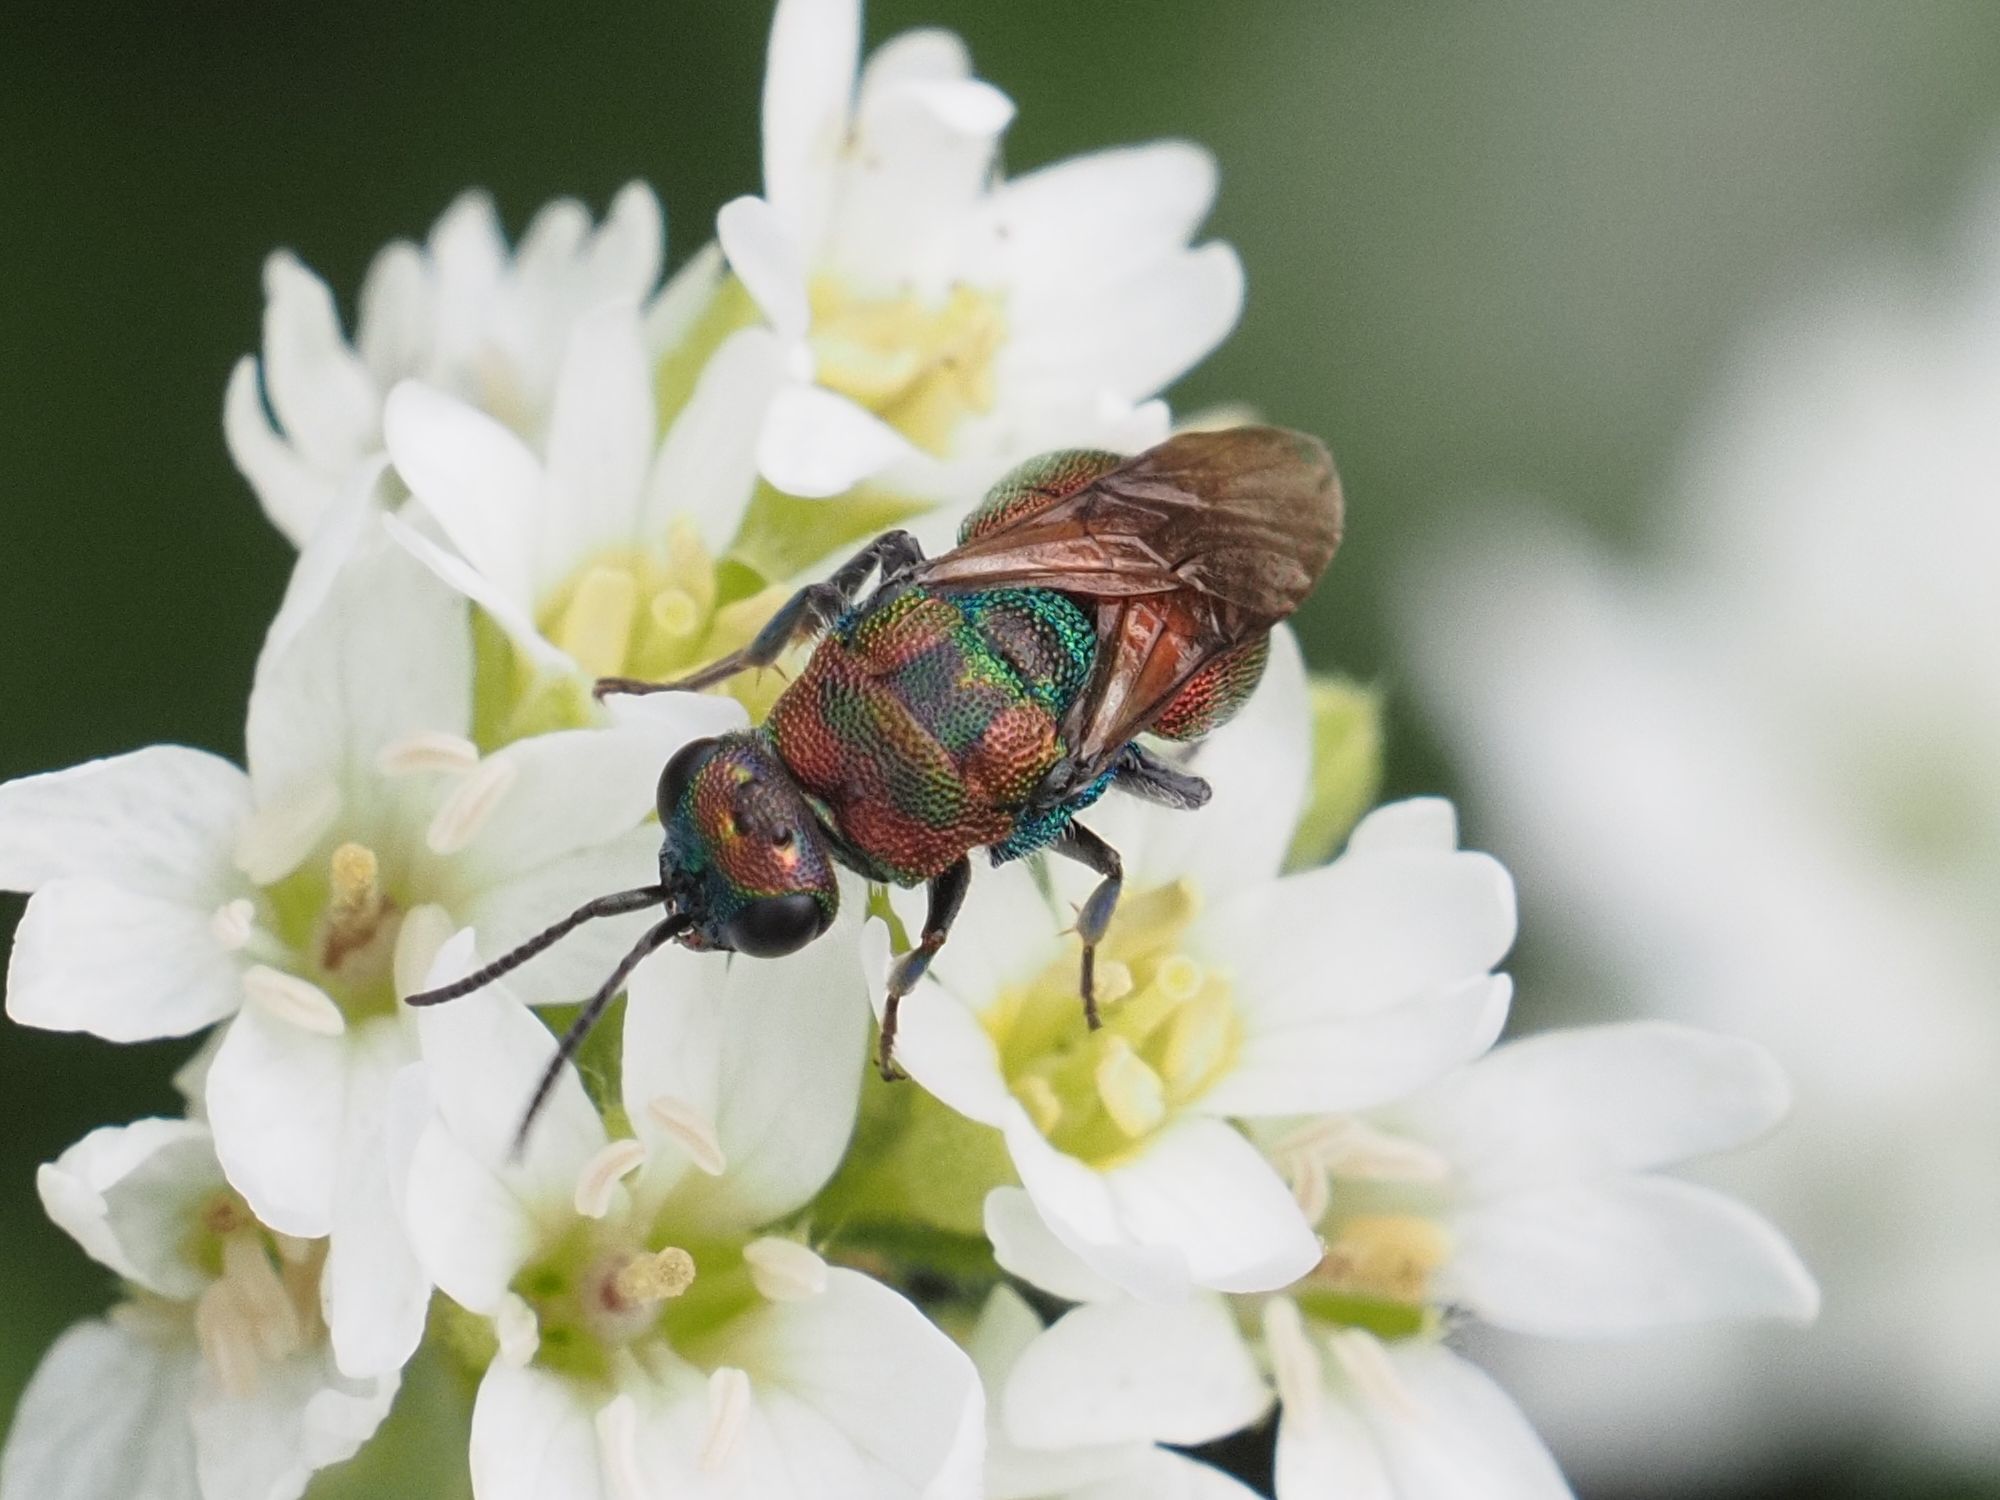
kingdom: Animalia
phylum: Arthropoda
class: Insecta
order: Hymenoptera
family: Chrysididae
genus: Hedychrum
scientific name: Hedychrum rutilans
